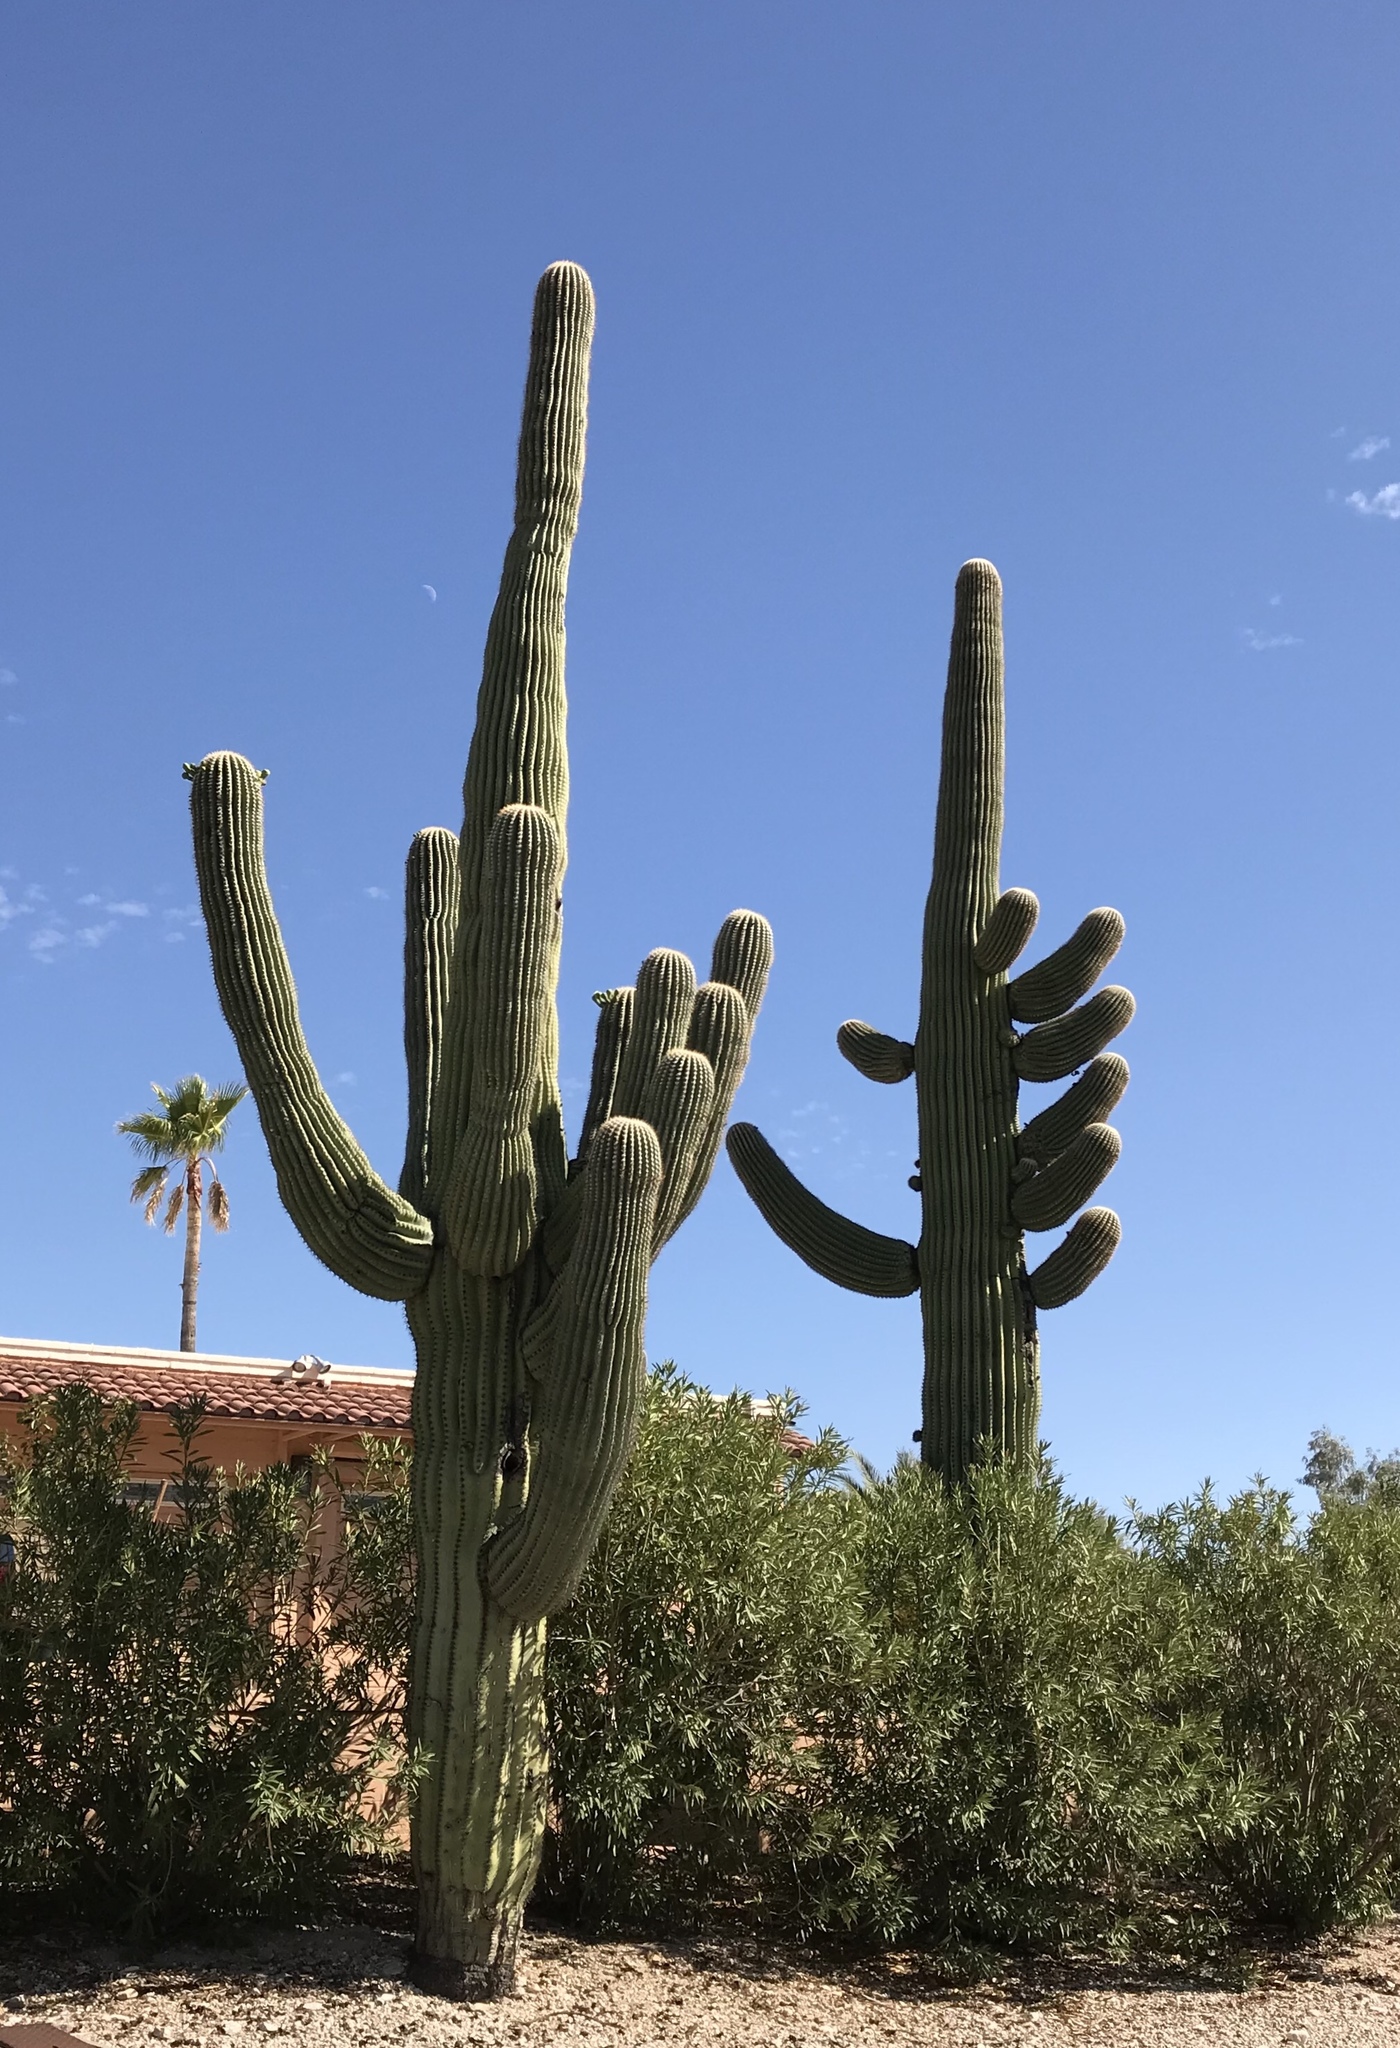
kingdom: Plantae
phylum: Tracheophyta
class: Magnoliopsida
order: Caryophyllales
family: Cactaceae
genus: Carnegiea
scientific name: Carnegiea gigantea
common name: Saguaro
